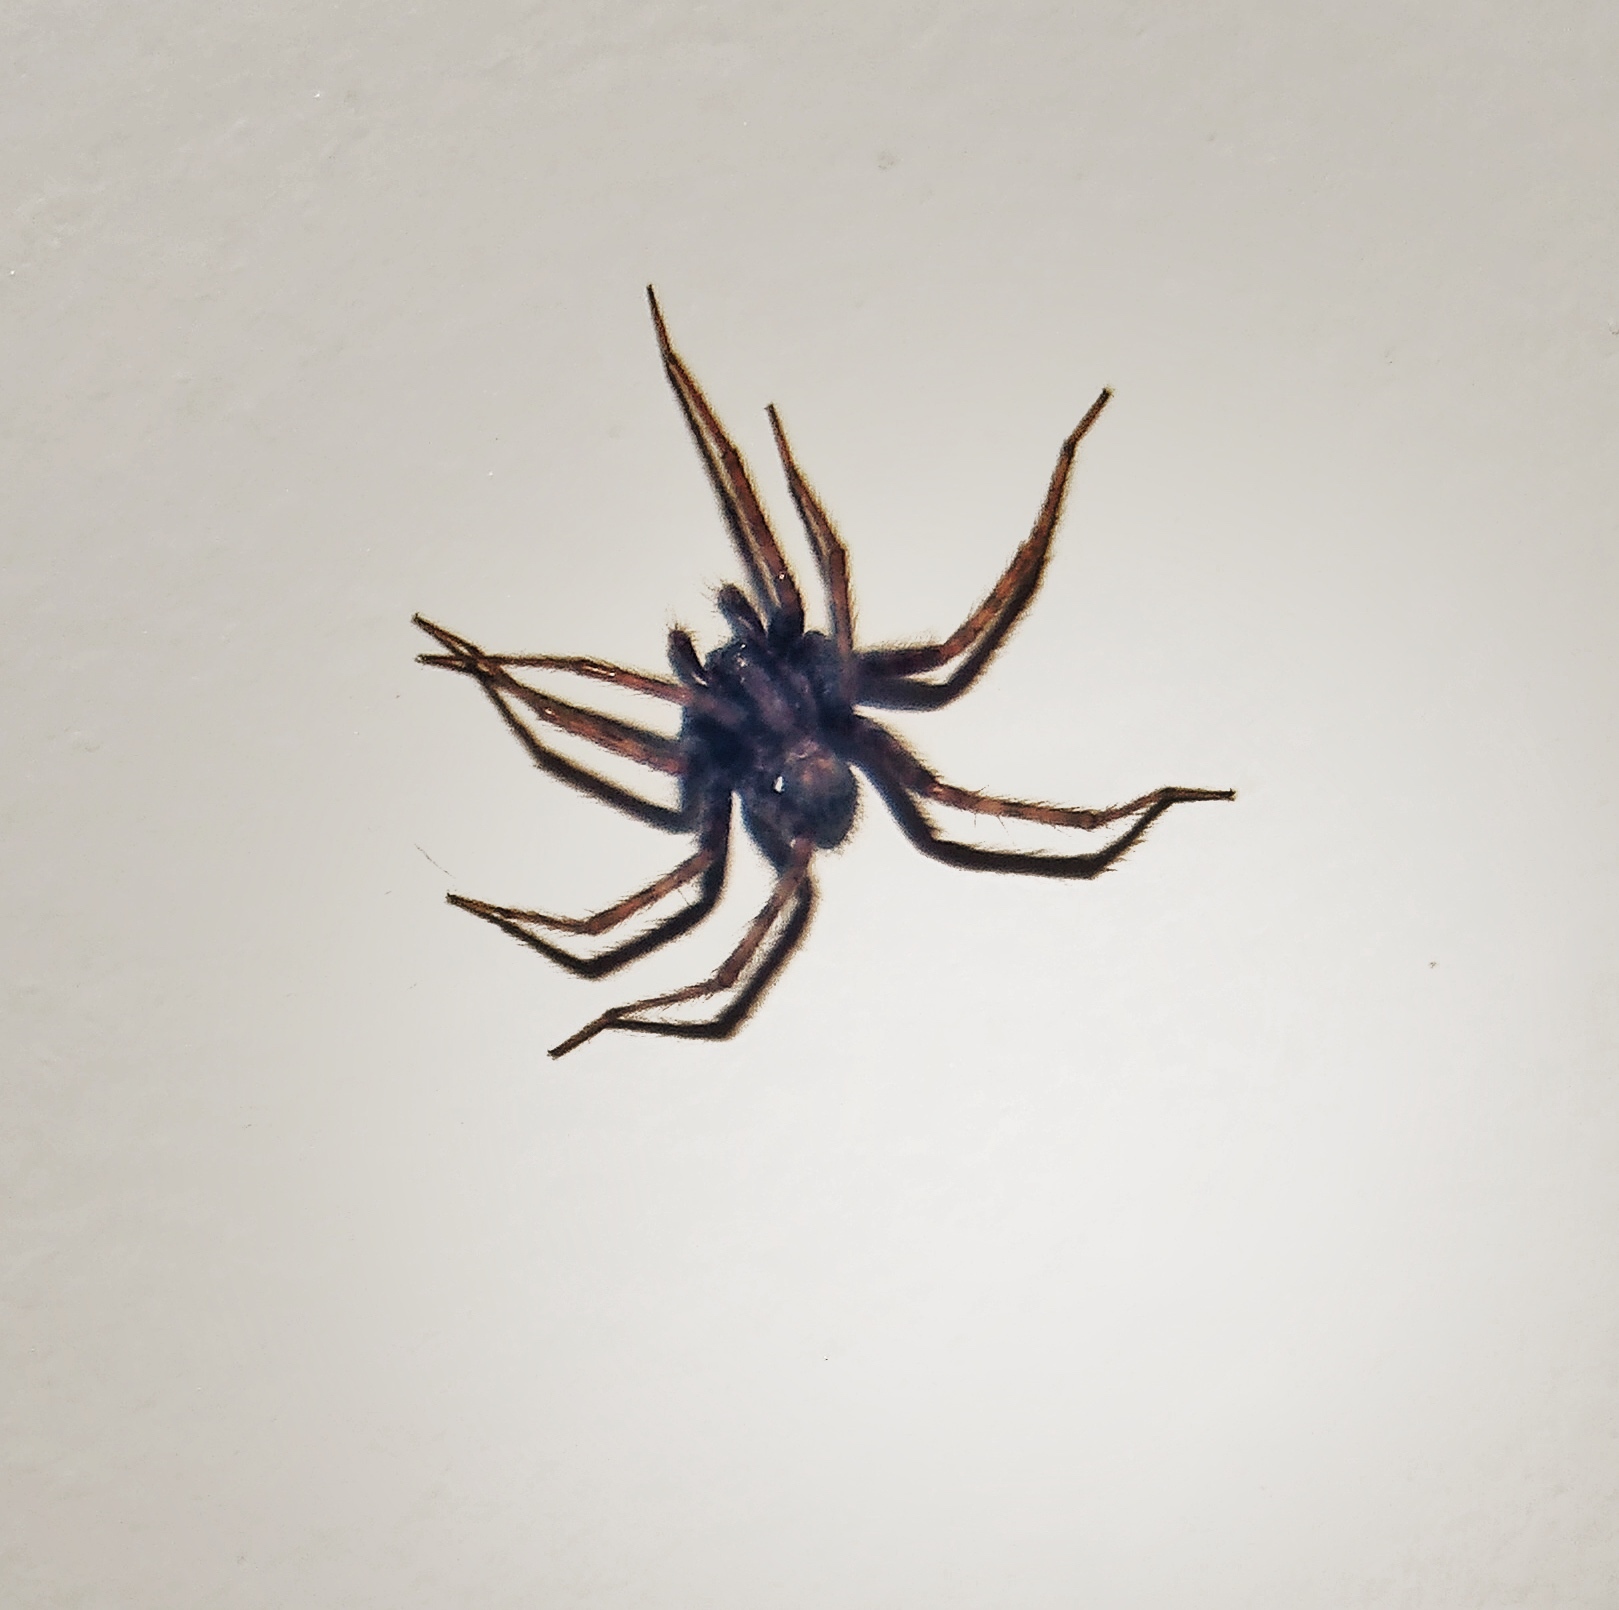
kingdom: Animalia
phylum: Arthropoda
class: Arachnida
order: Araneae
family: Agelenidae
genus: Tegenaria
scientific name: Tegenaria domestica
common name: Barn funnel weaver
